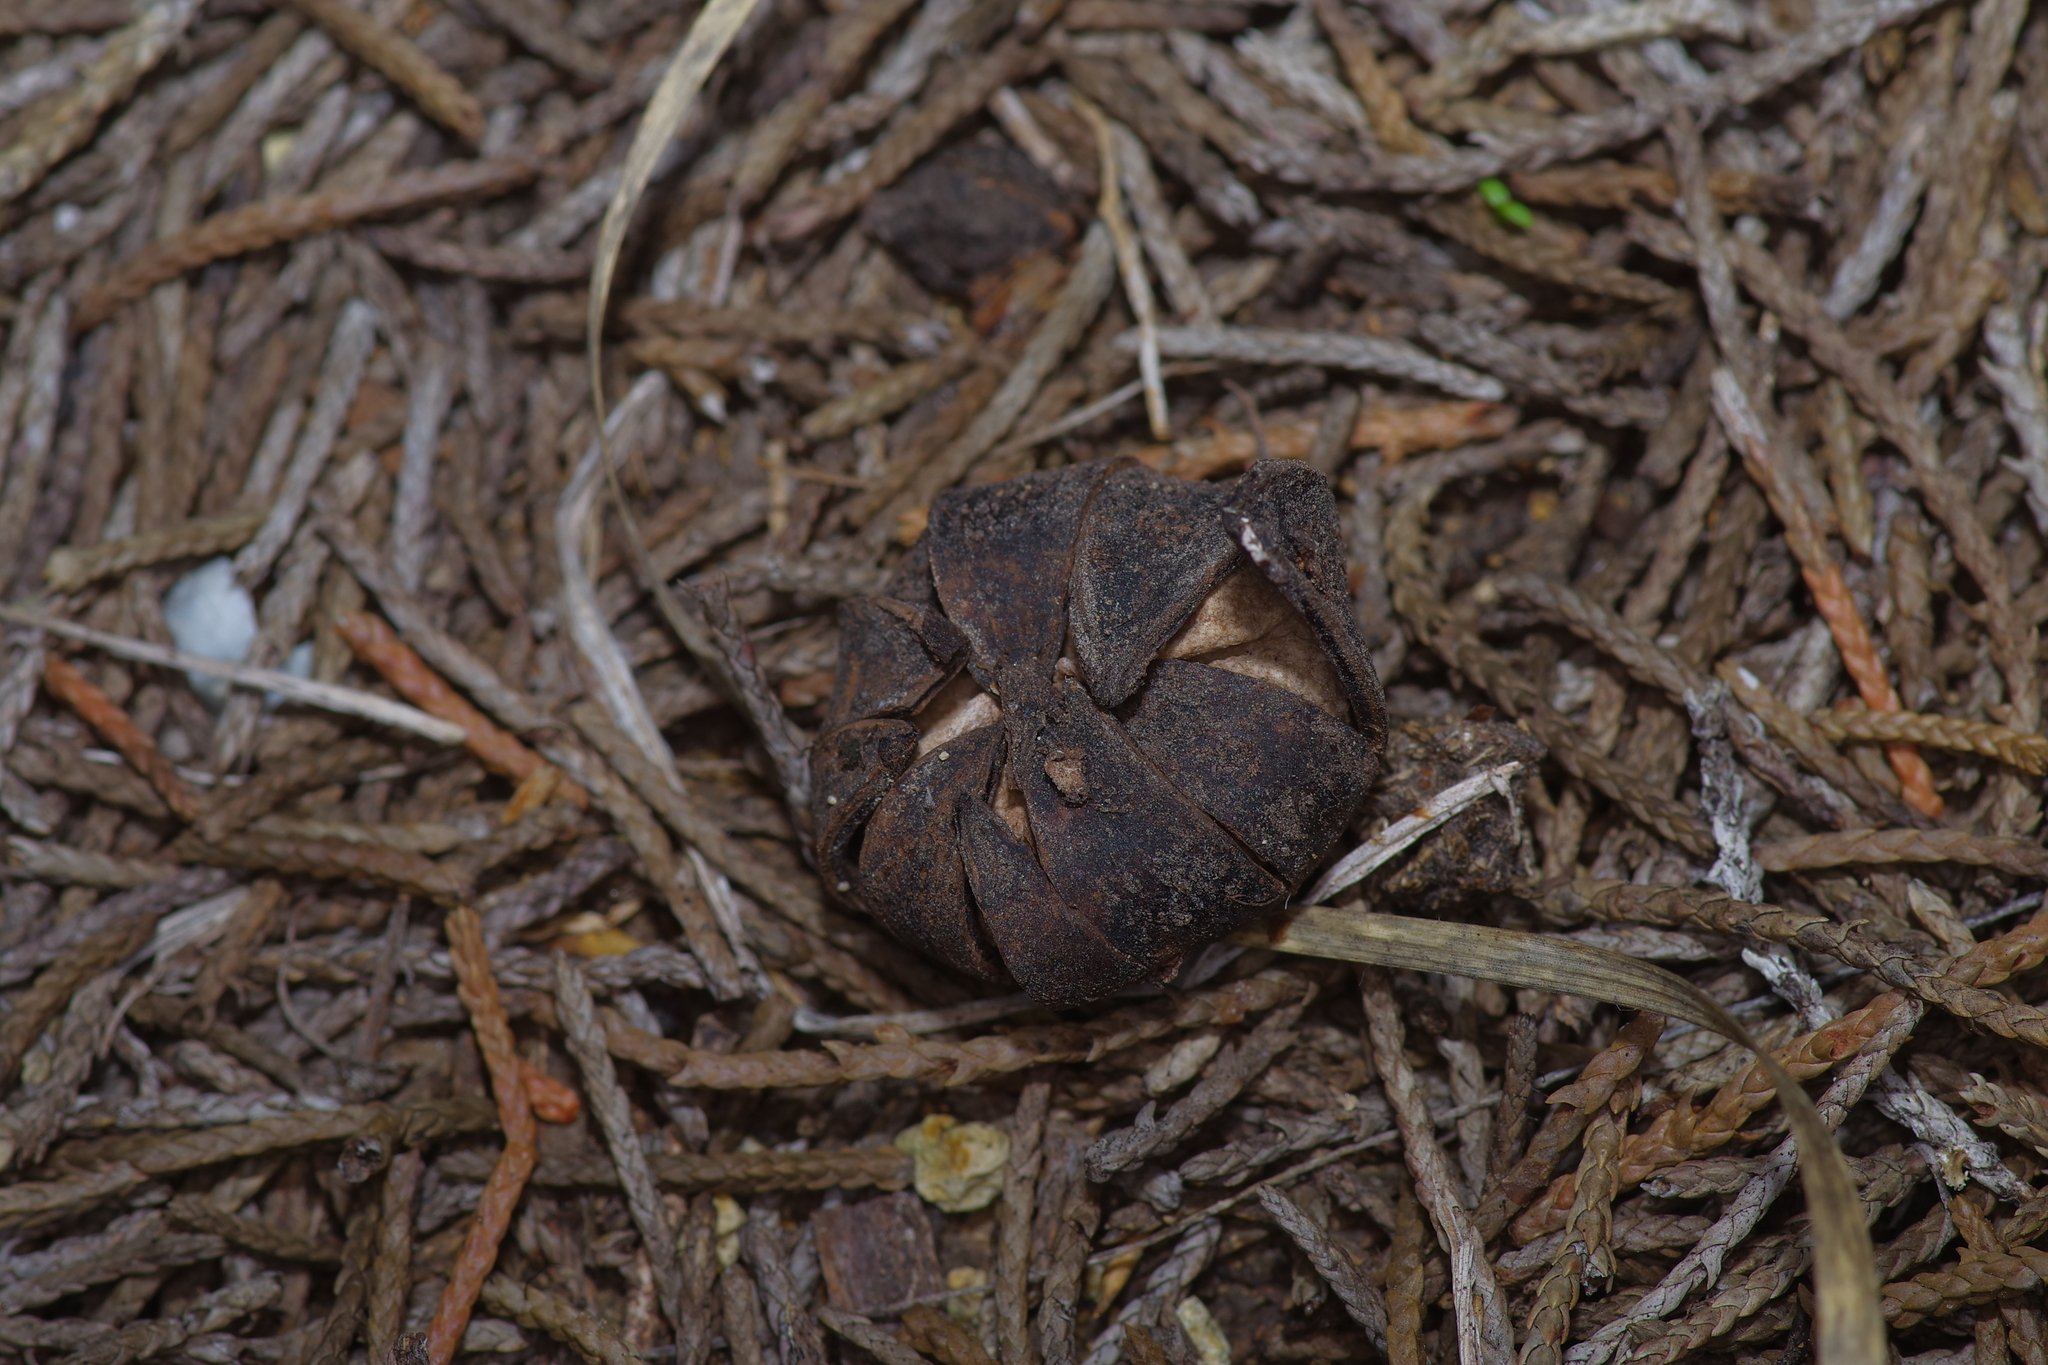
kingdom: Fungi
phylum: Basidiomycota
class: Agaricomycetes
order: Boletales
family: Diplocystidiaceae
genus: Astraeus
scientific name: Astraeus morganii
